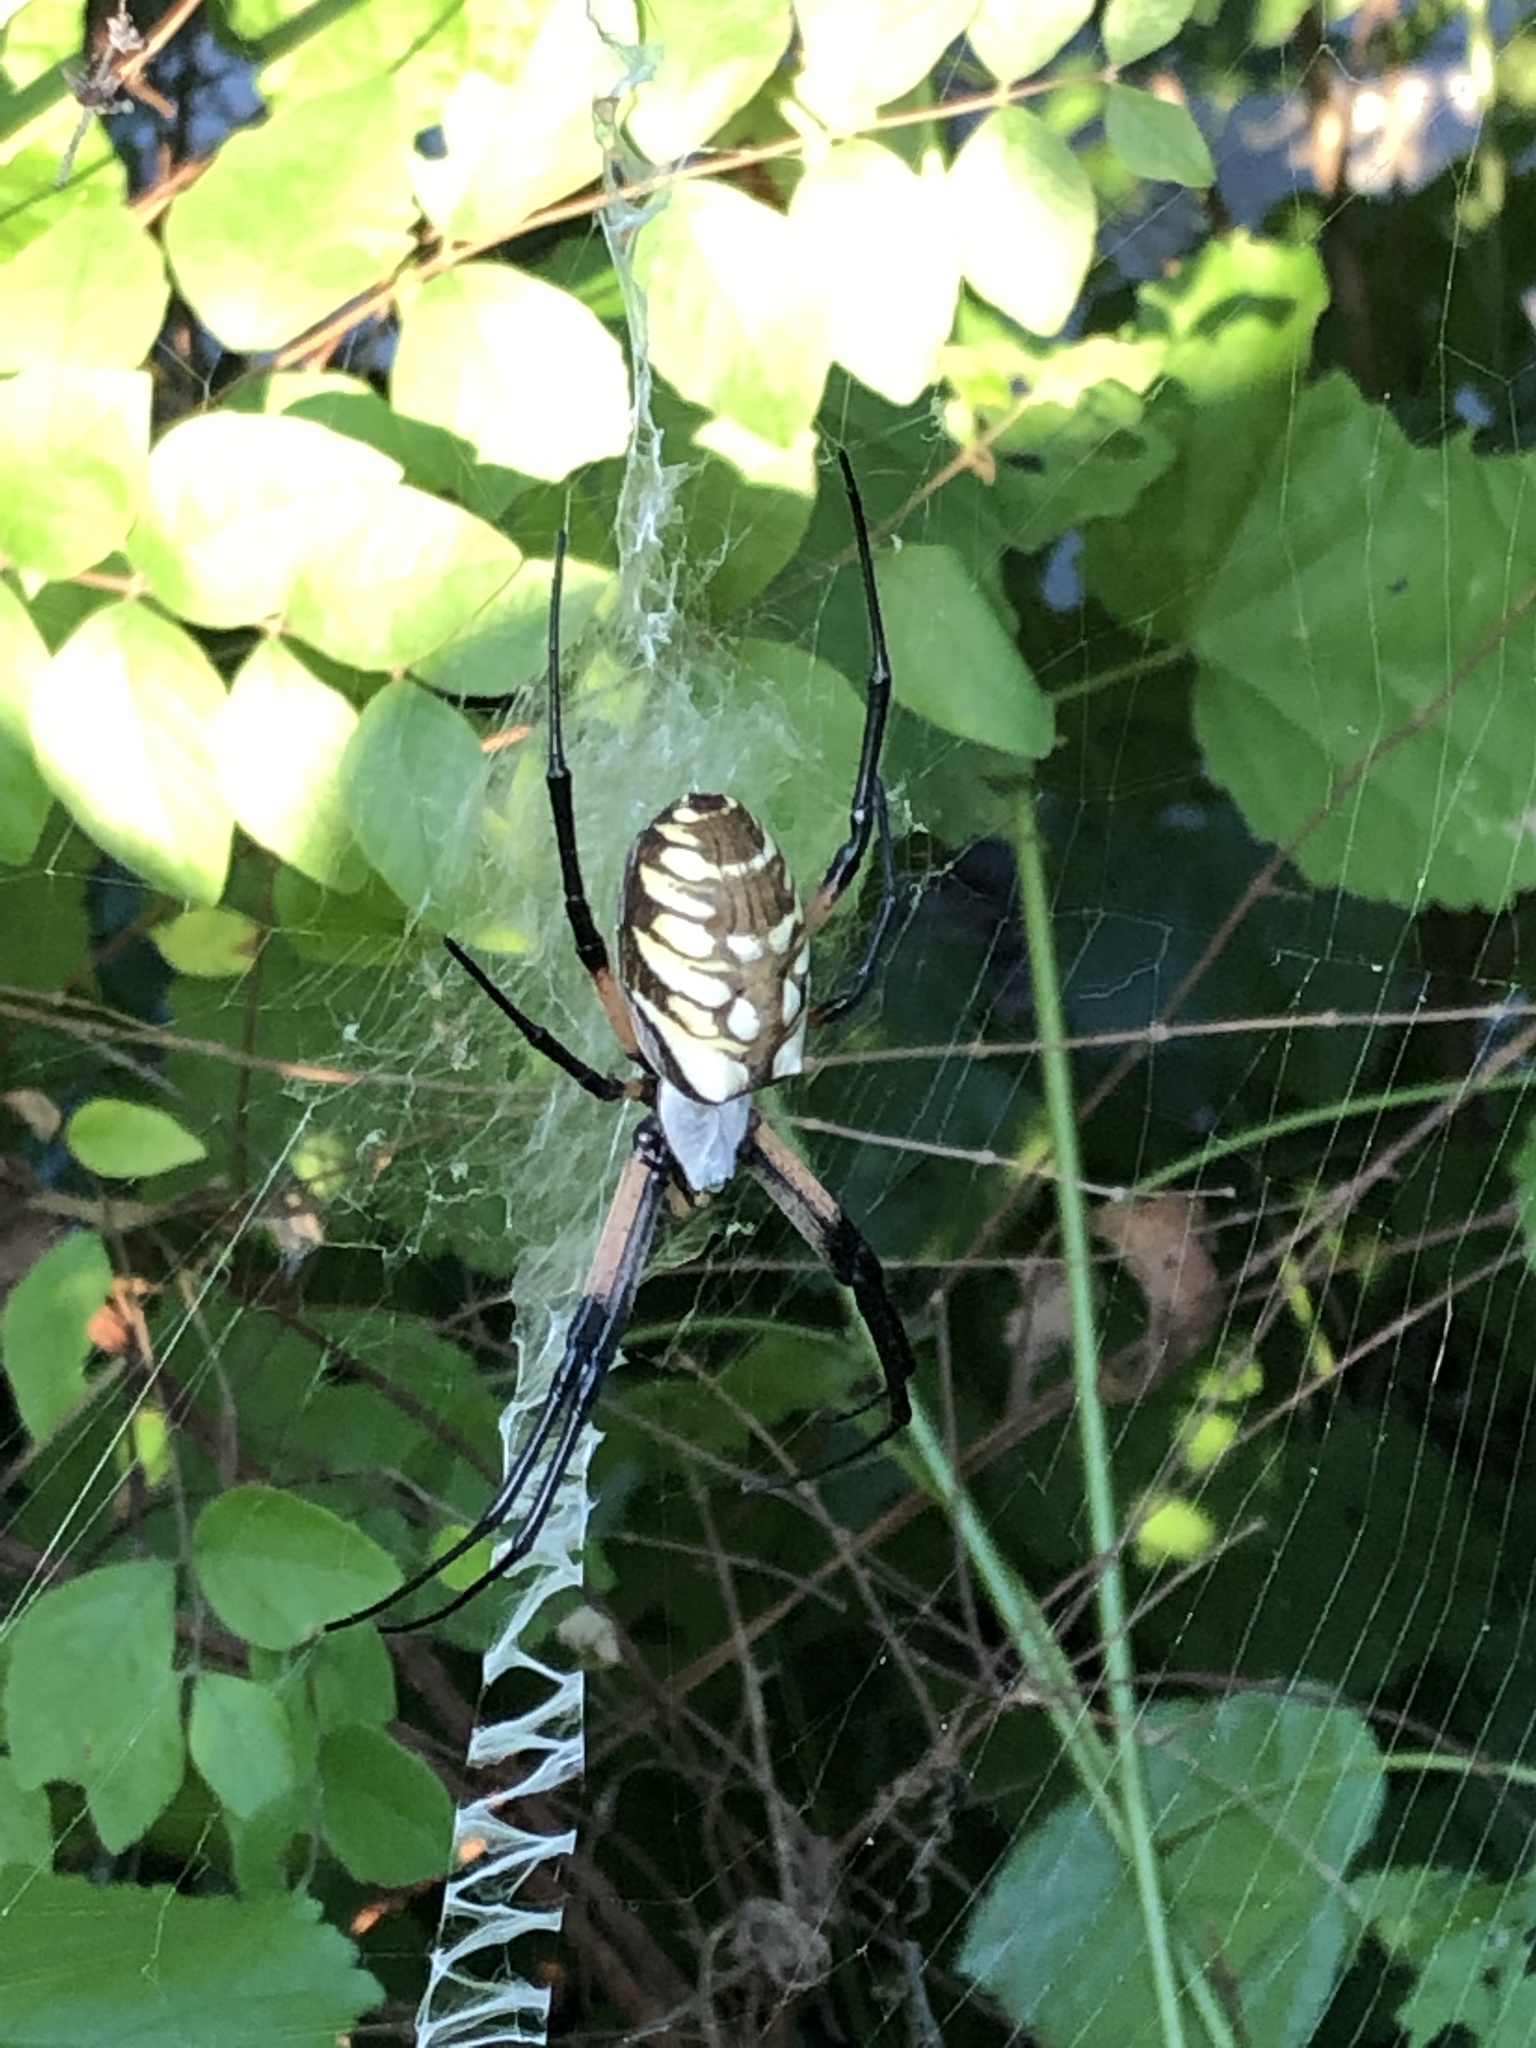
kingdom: Animalia
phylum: Arthropoda
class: Arachnida
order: Araneae
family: Araneidae
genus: Argiope
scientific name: Argiope aurantia
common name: Orb weavers
